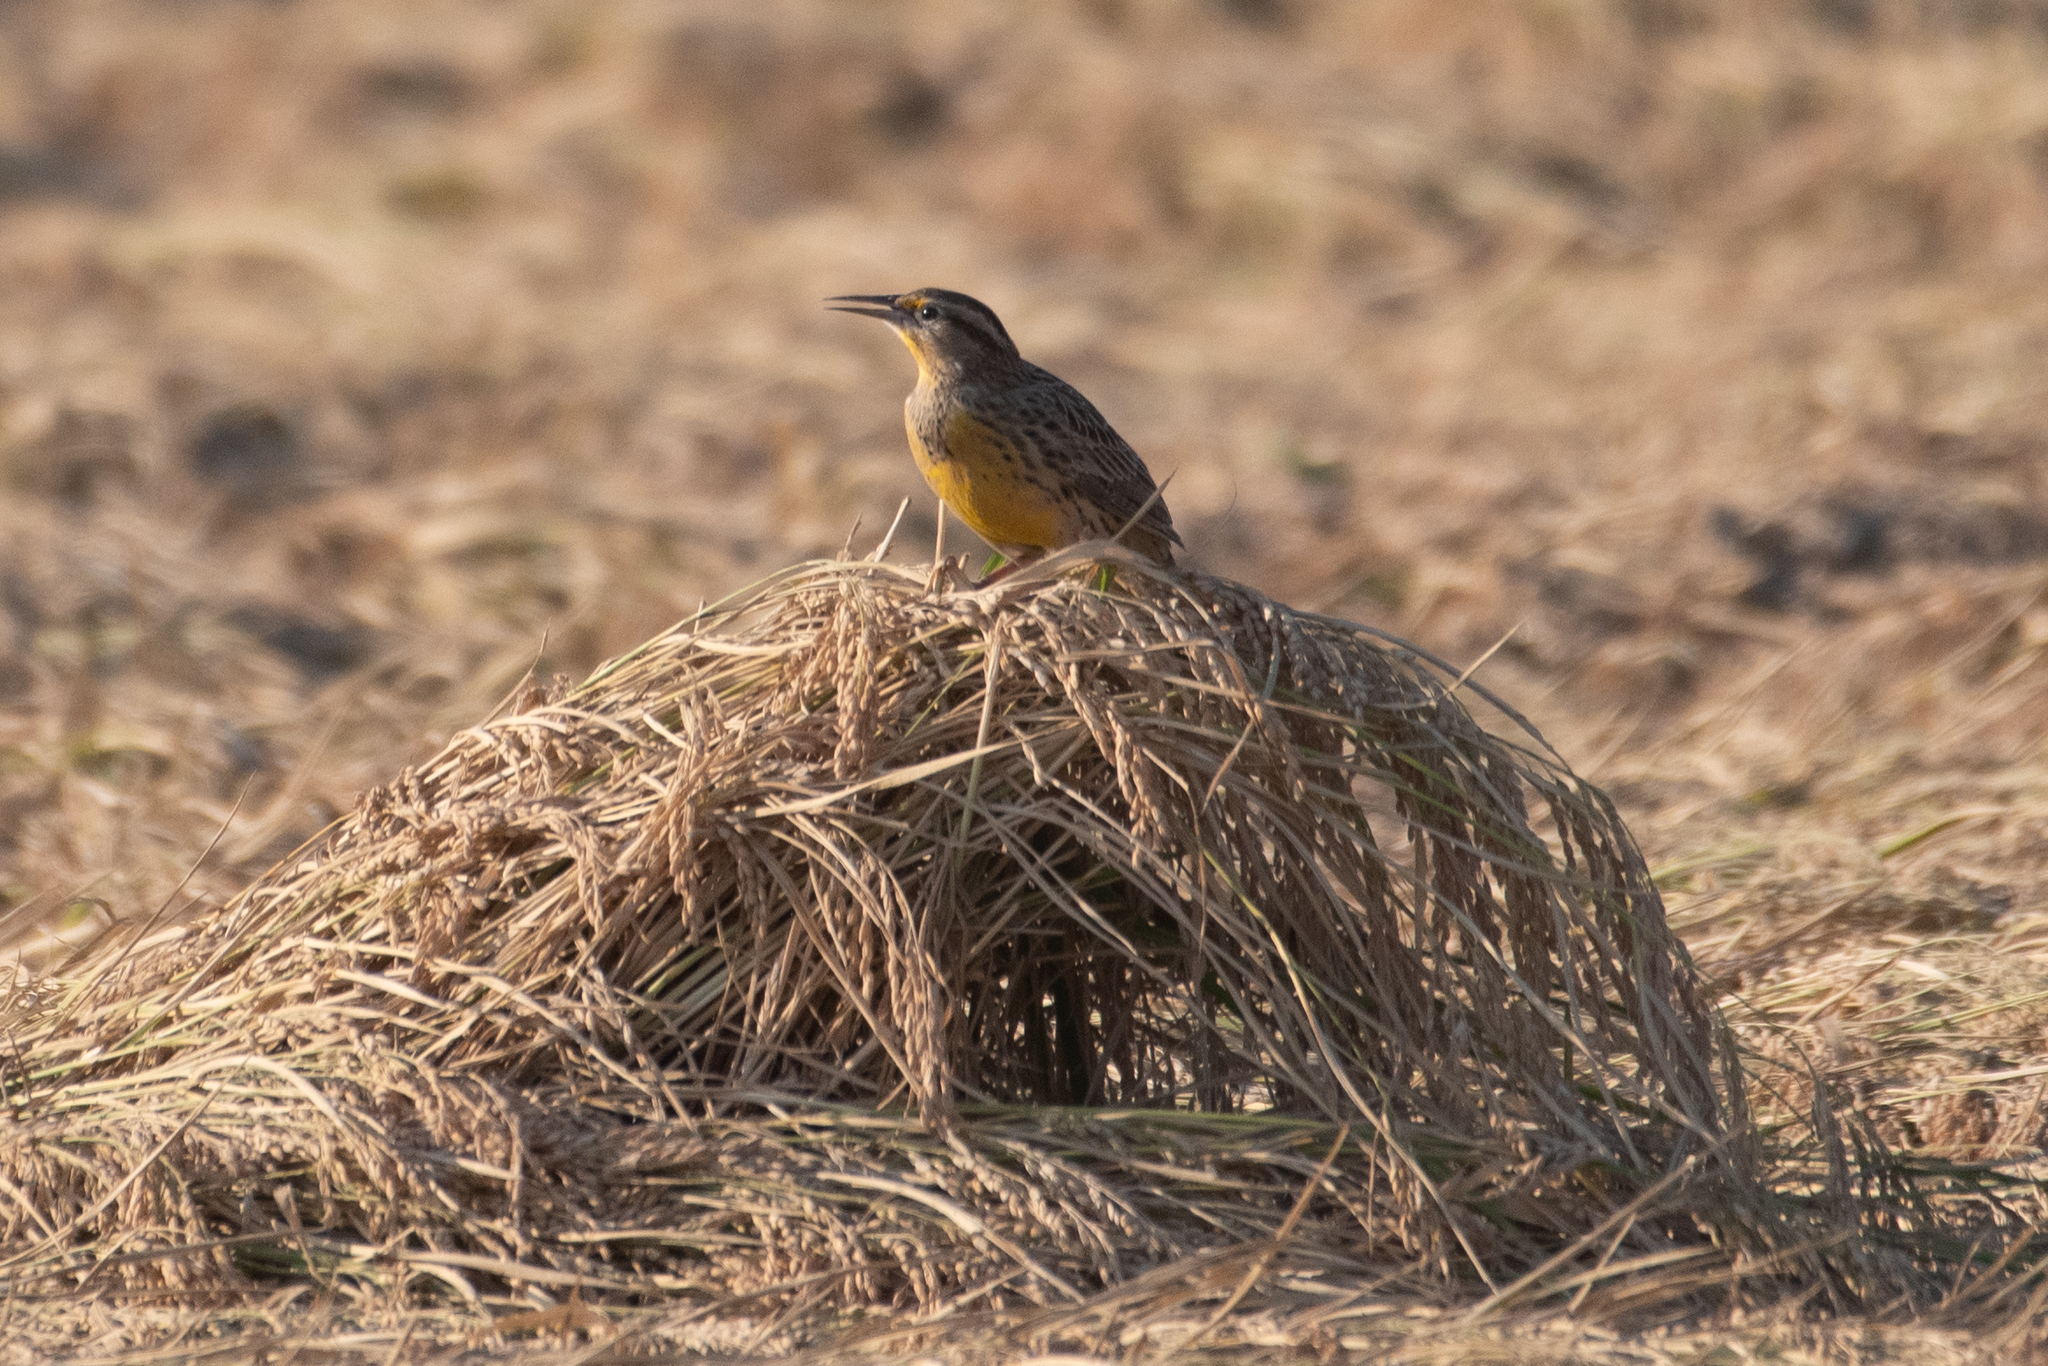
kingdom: Animalia
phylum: Chordata
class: Aves
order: Passeriformes
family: Icteridae
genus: Sturnella
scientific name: Sturnella neglecta
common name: Western meadowlark
